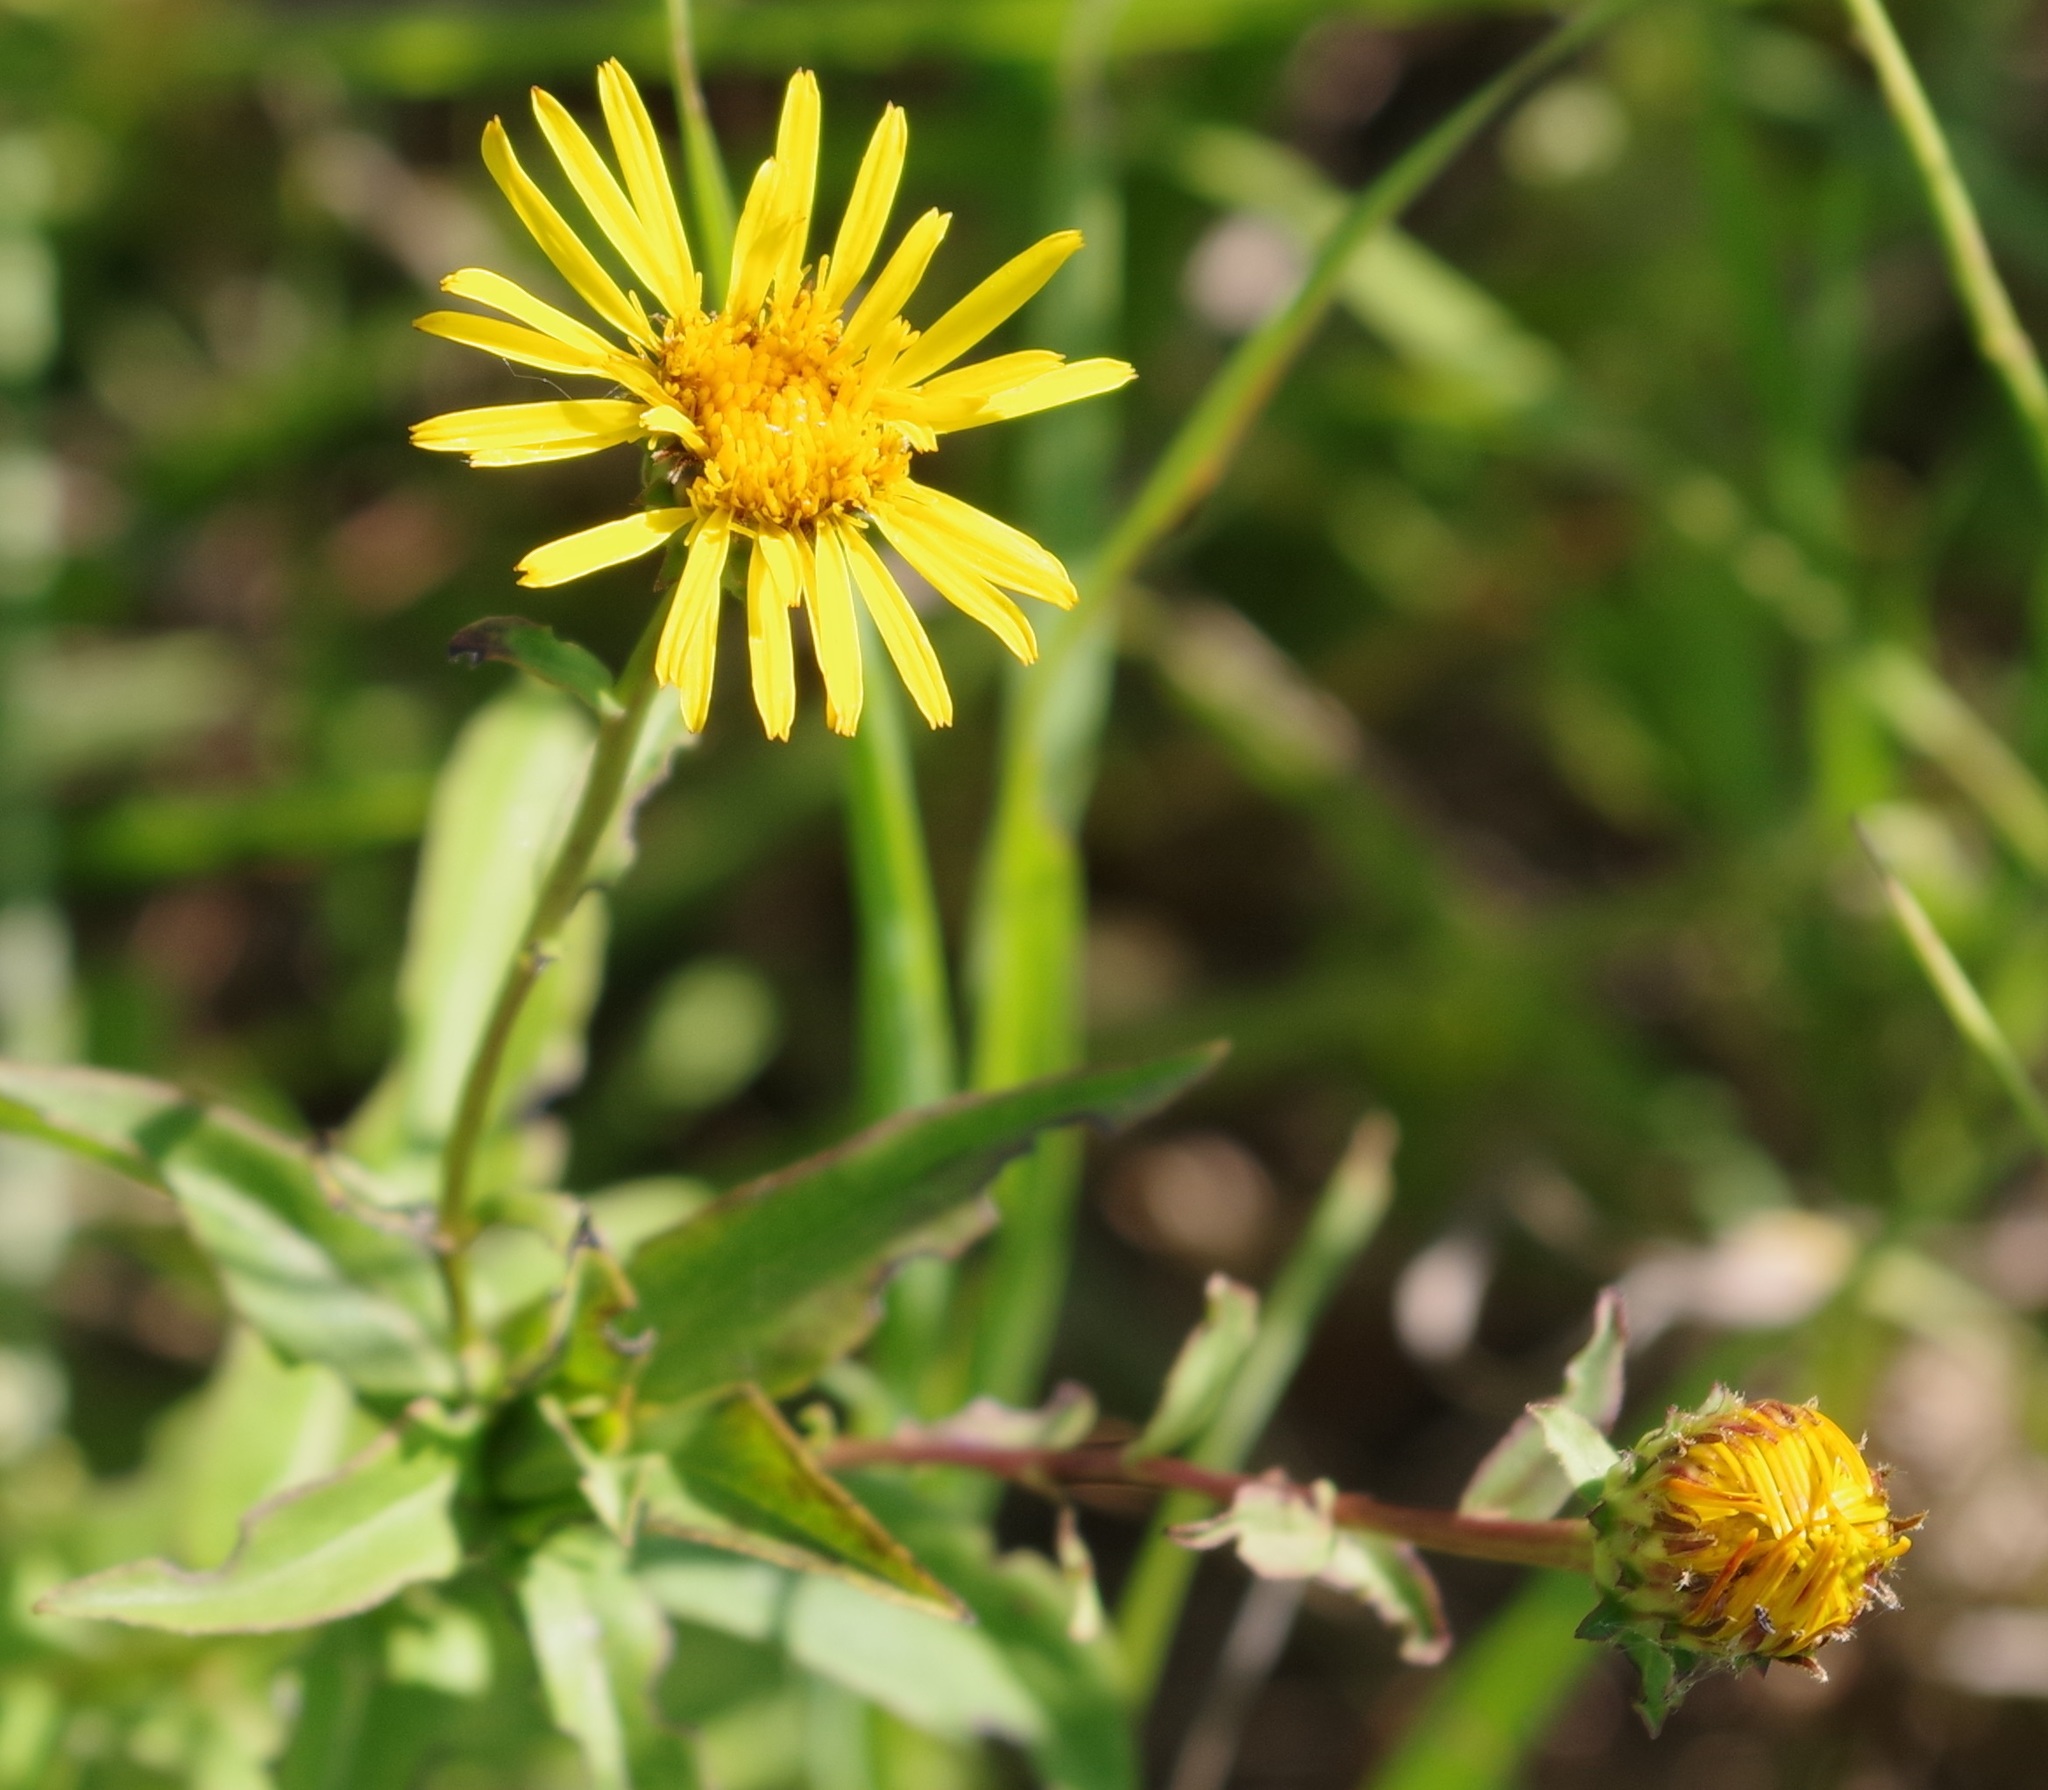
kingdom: Plantae
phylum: Tracheophyta
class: Magnoliopsida
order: Asterales
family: Asteraceae
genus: Pentanema
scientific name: Pentanema salicinum
